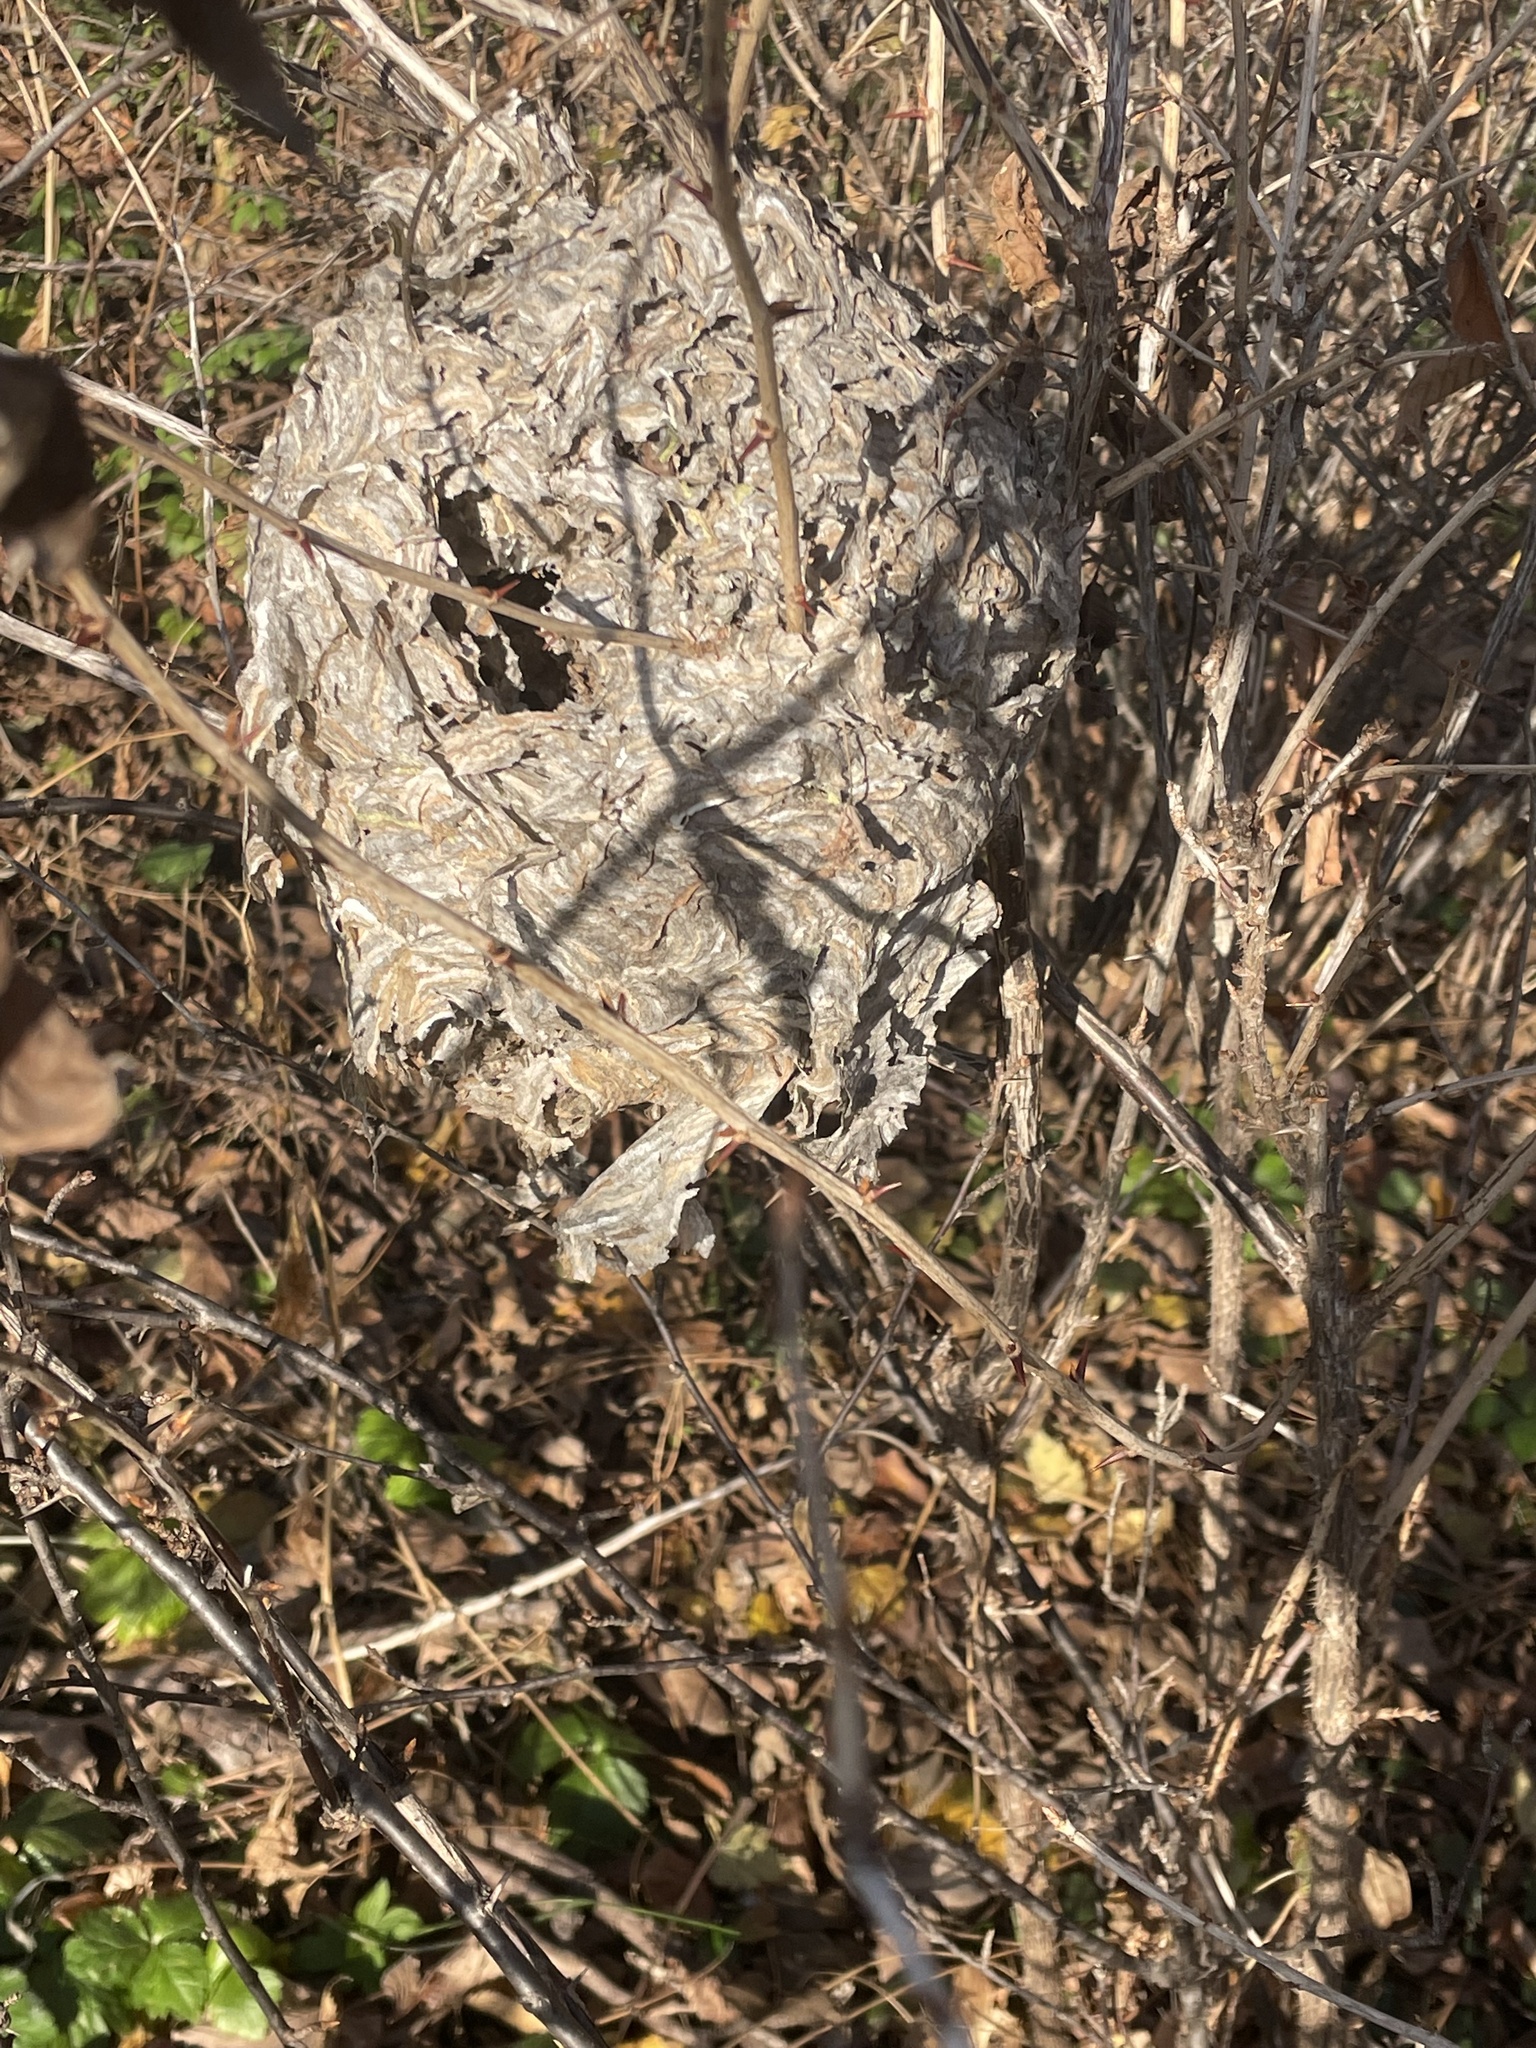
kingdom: Animalia
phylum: Arthropoda
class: Insecta
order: Hymenoptera
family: Vespidae
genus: Dolichovespula
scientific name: Dolichovespula maculata
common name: Bald-faced hornet
